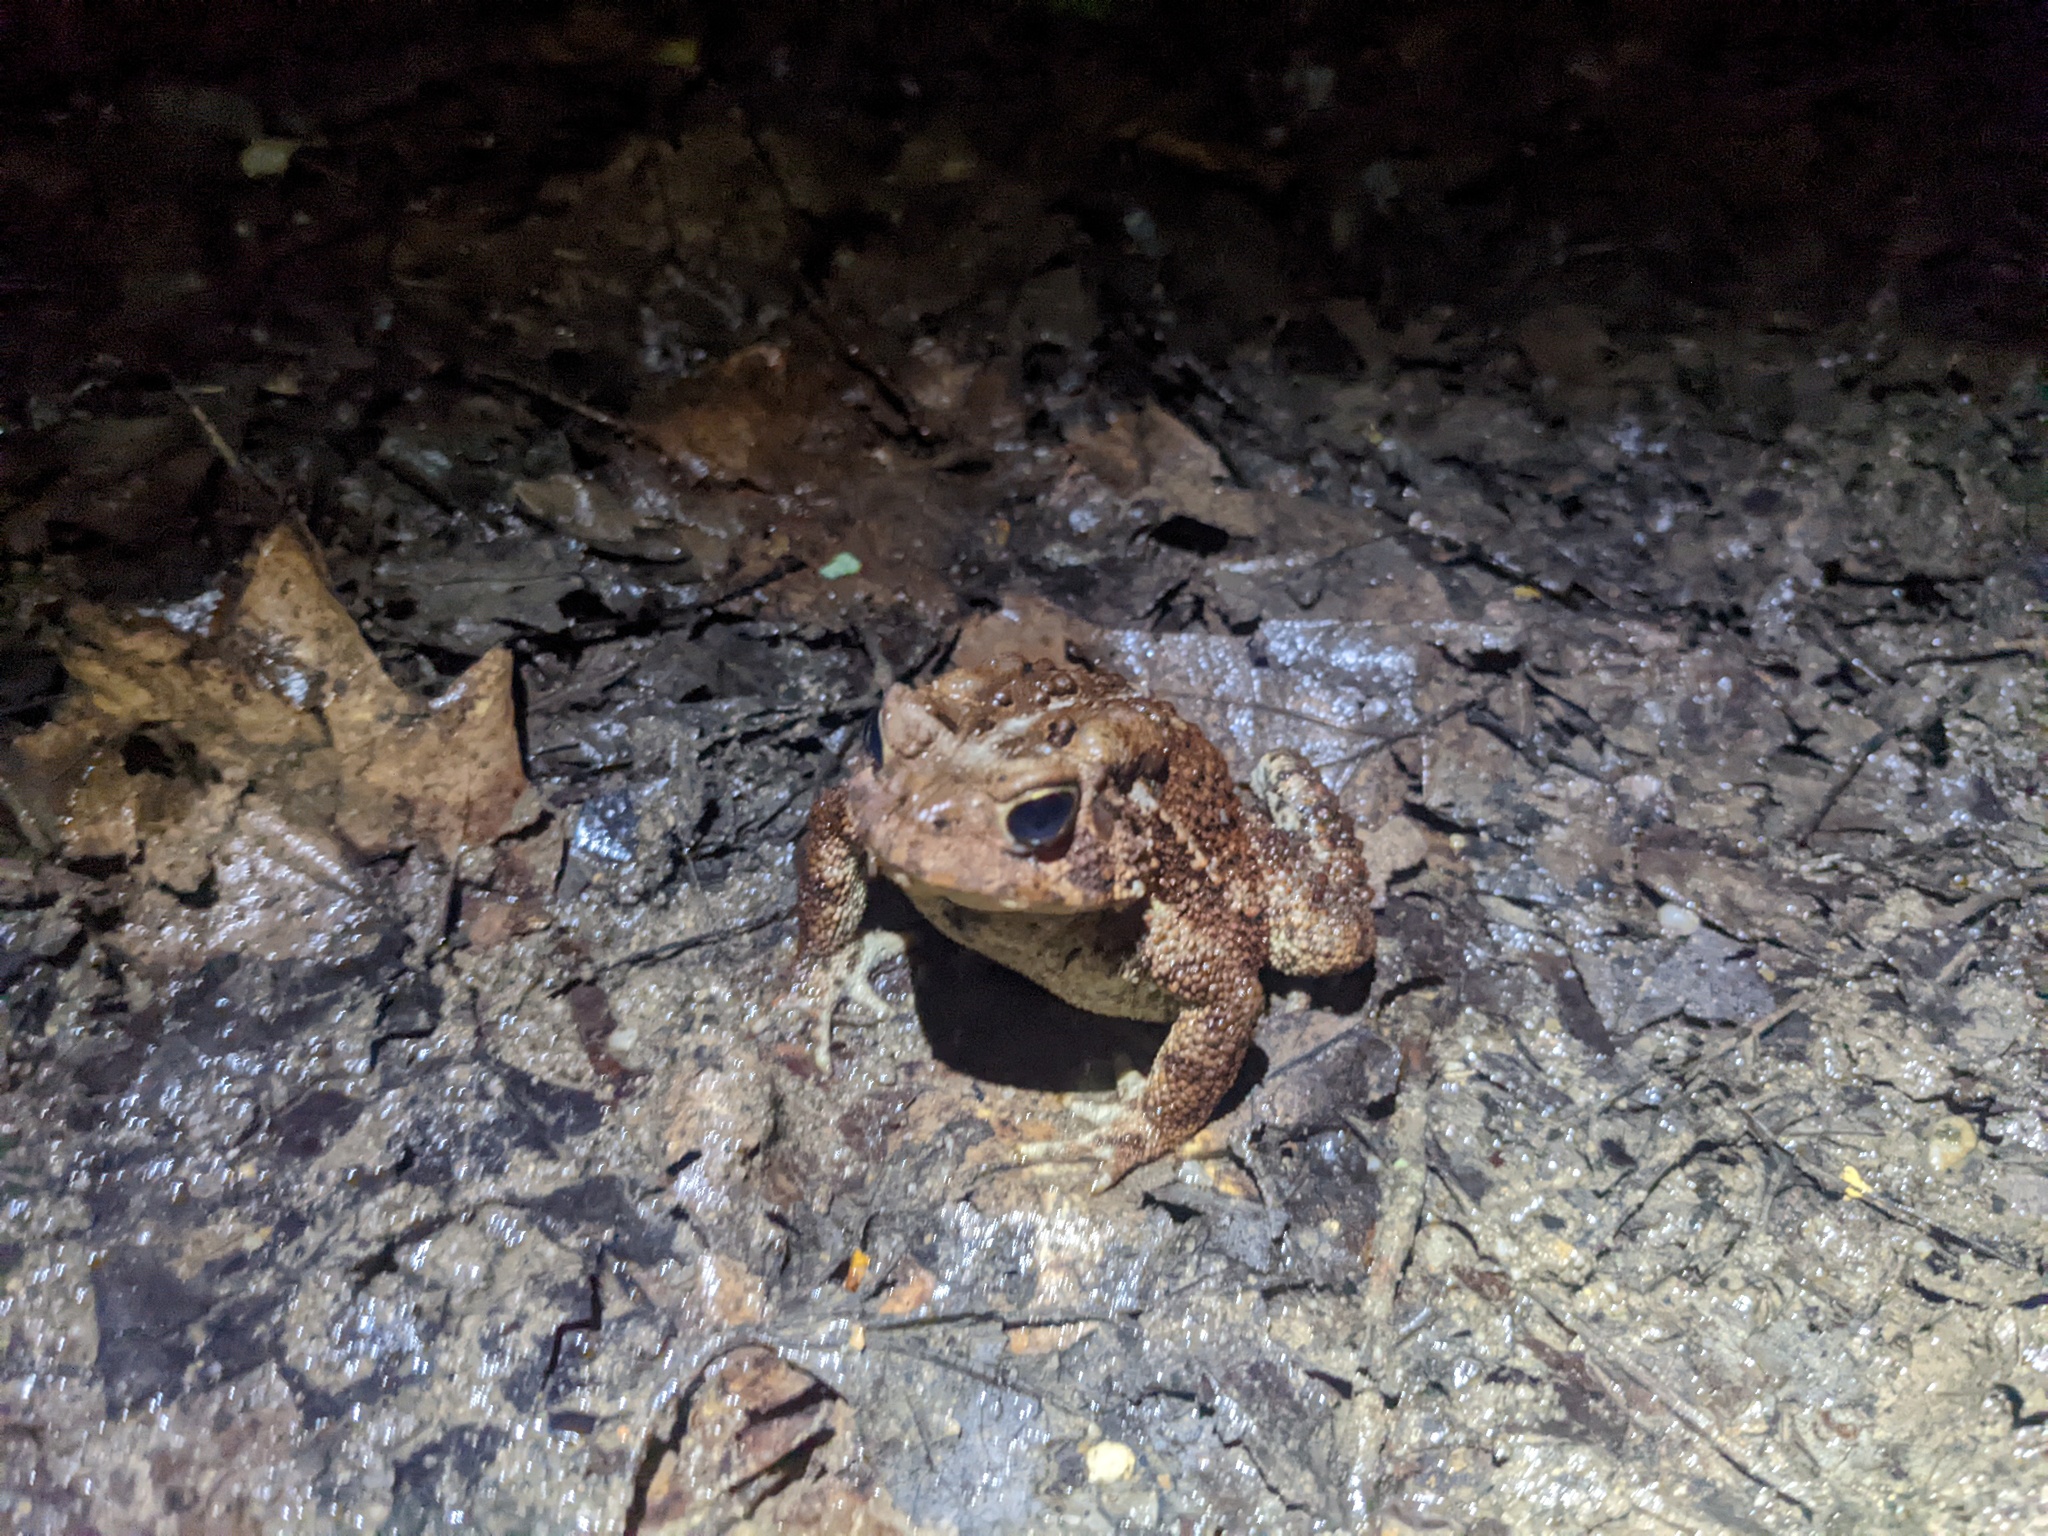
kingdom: Animalia
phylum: Chordata
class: Amphibia
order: Anura
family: Bufonidae
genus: Anaxyrus
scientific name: Anaxyrus americanus
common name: American toad
